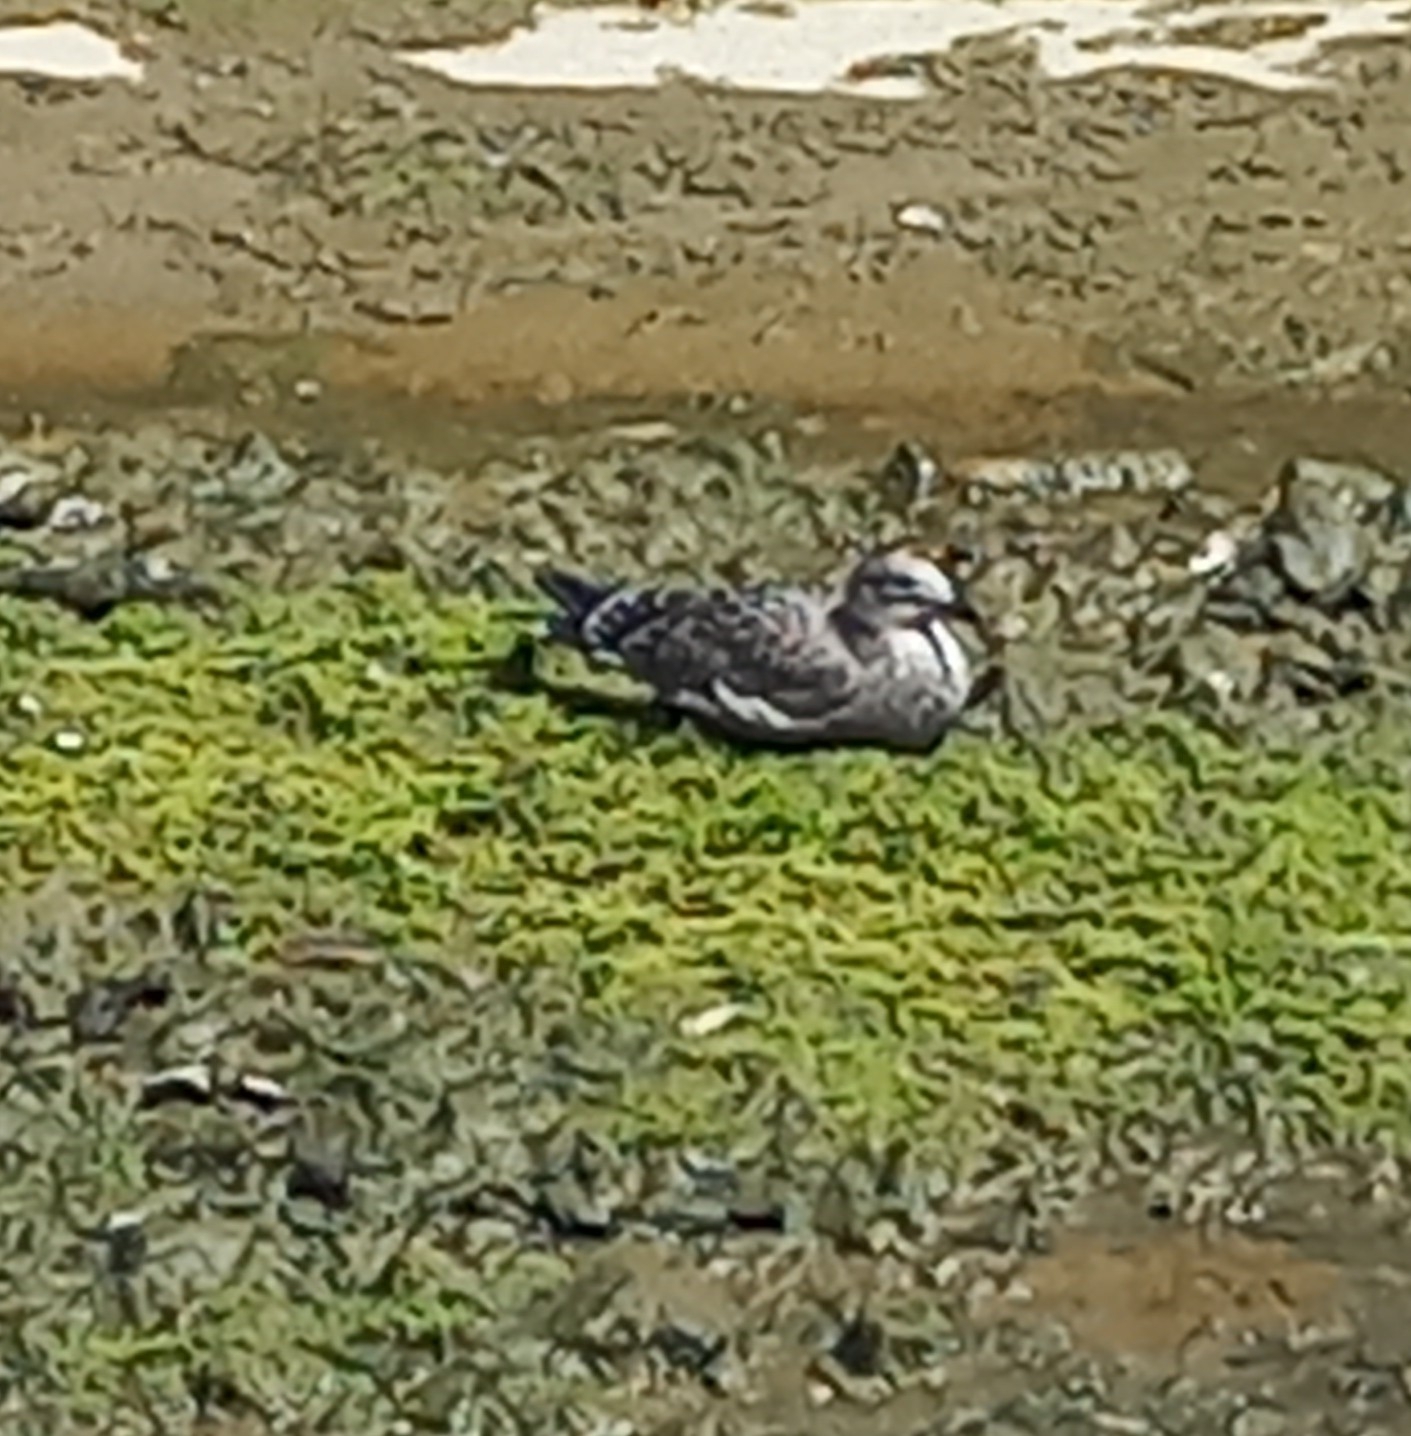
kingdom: Animalia
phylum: Chordata
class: Aves
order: Charadriiformes
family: Laridae
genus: Larus
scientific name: Larus dominicanus
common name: Kelp gull
